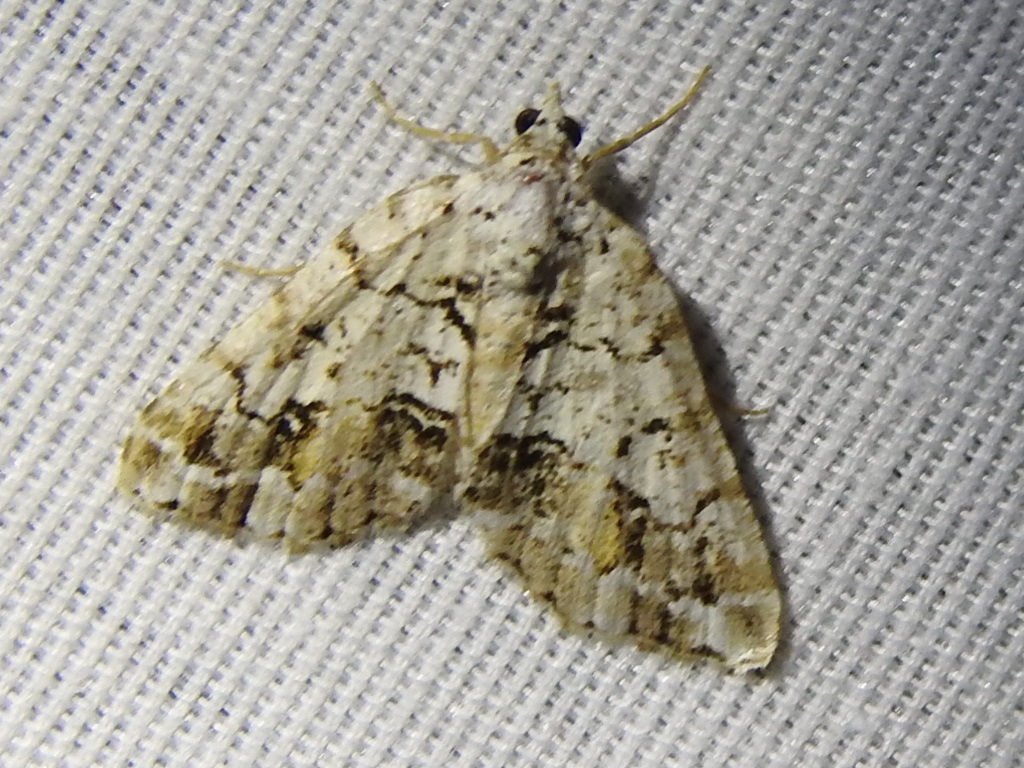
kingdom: Animalia
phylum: Arthropoda
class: Insecta
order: Lepidoptera
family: Geometridae
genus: Macaria
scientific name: Macaria graphidaria
